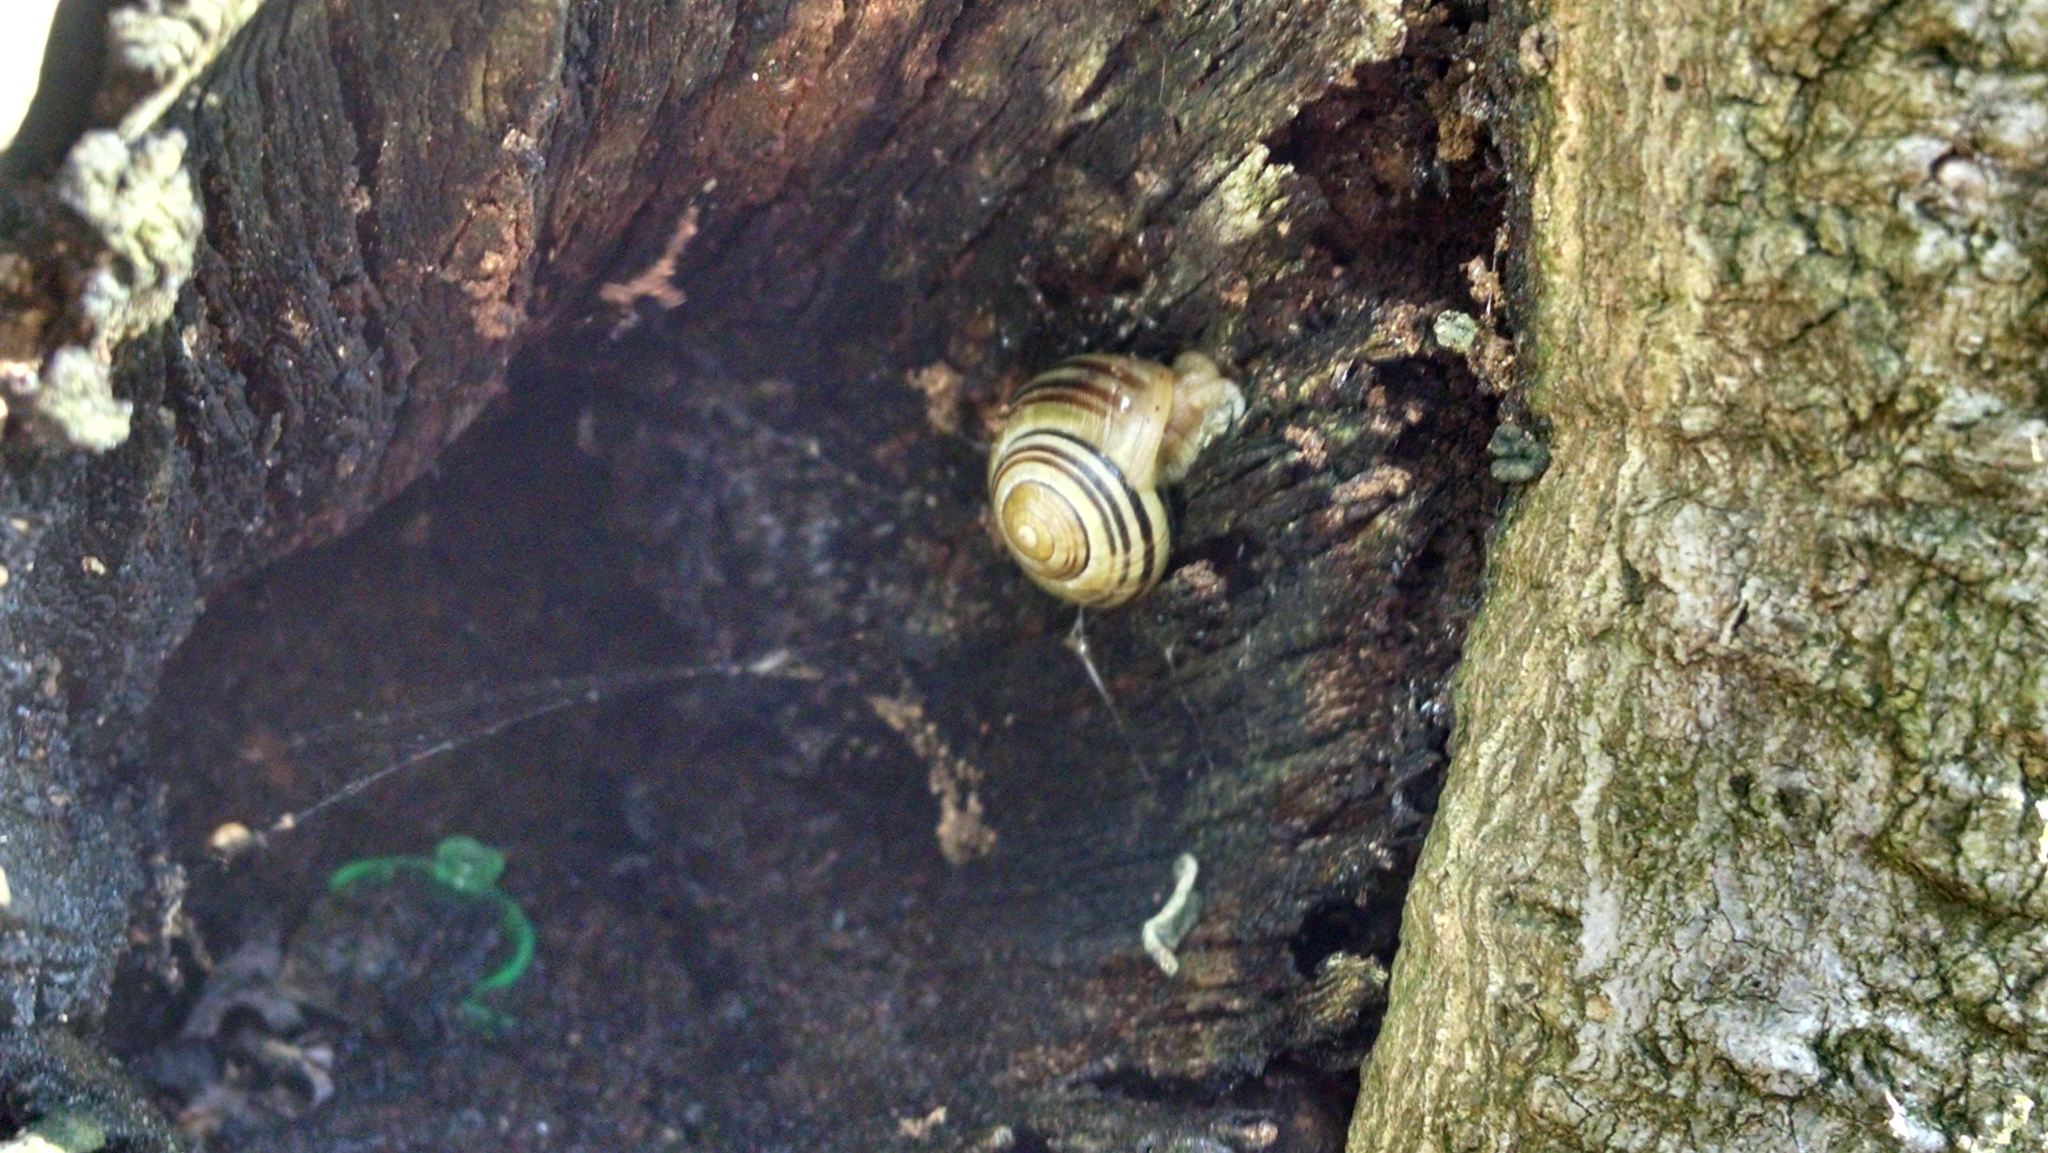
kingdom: Animalia
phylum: Mollusca
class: Gastropoda
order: Stylommatophora
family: Helicidae
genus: Cepaea
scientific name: Cepaea nemoralis
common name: Grovesnail
